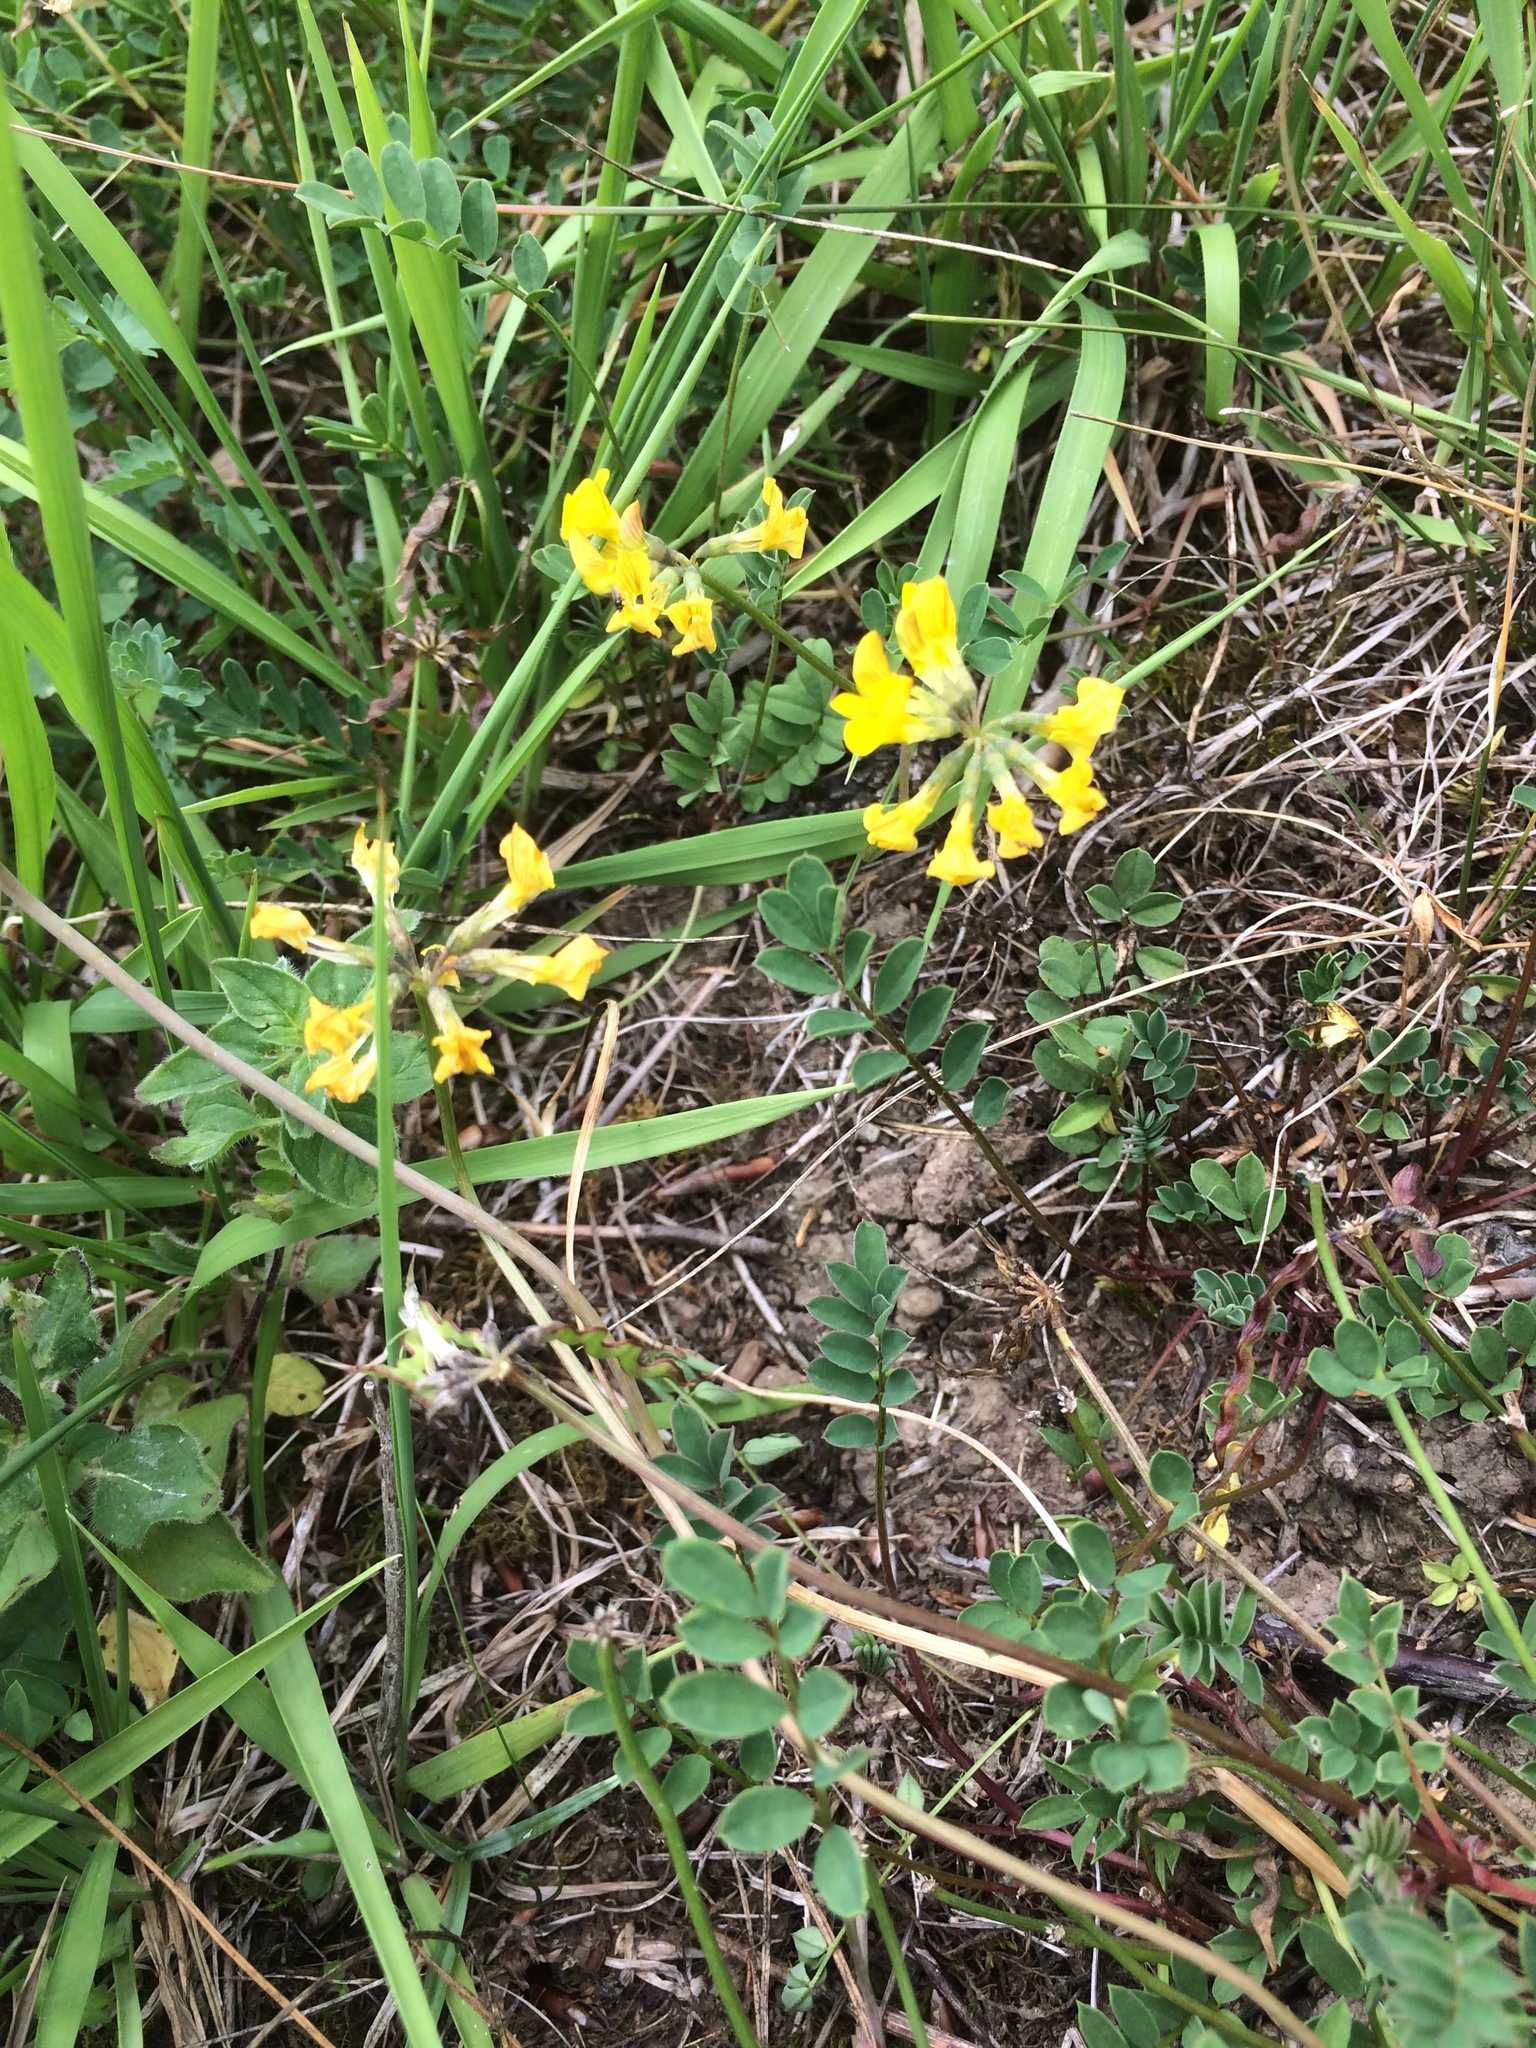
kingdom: Plantae
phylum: Tracheophyta
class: Magnoliopsida
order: Fabales
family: Fabaceae
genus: Hippocrepis
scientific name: Hippocrepis comosa
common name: Horseshoe vetch
